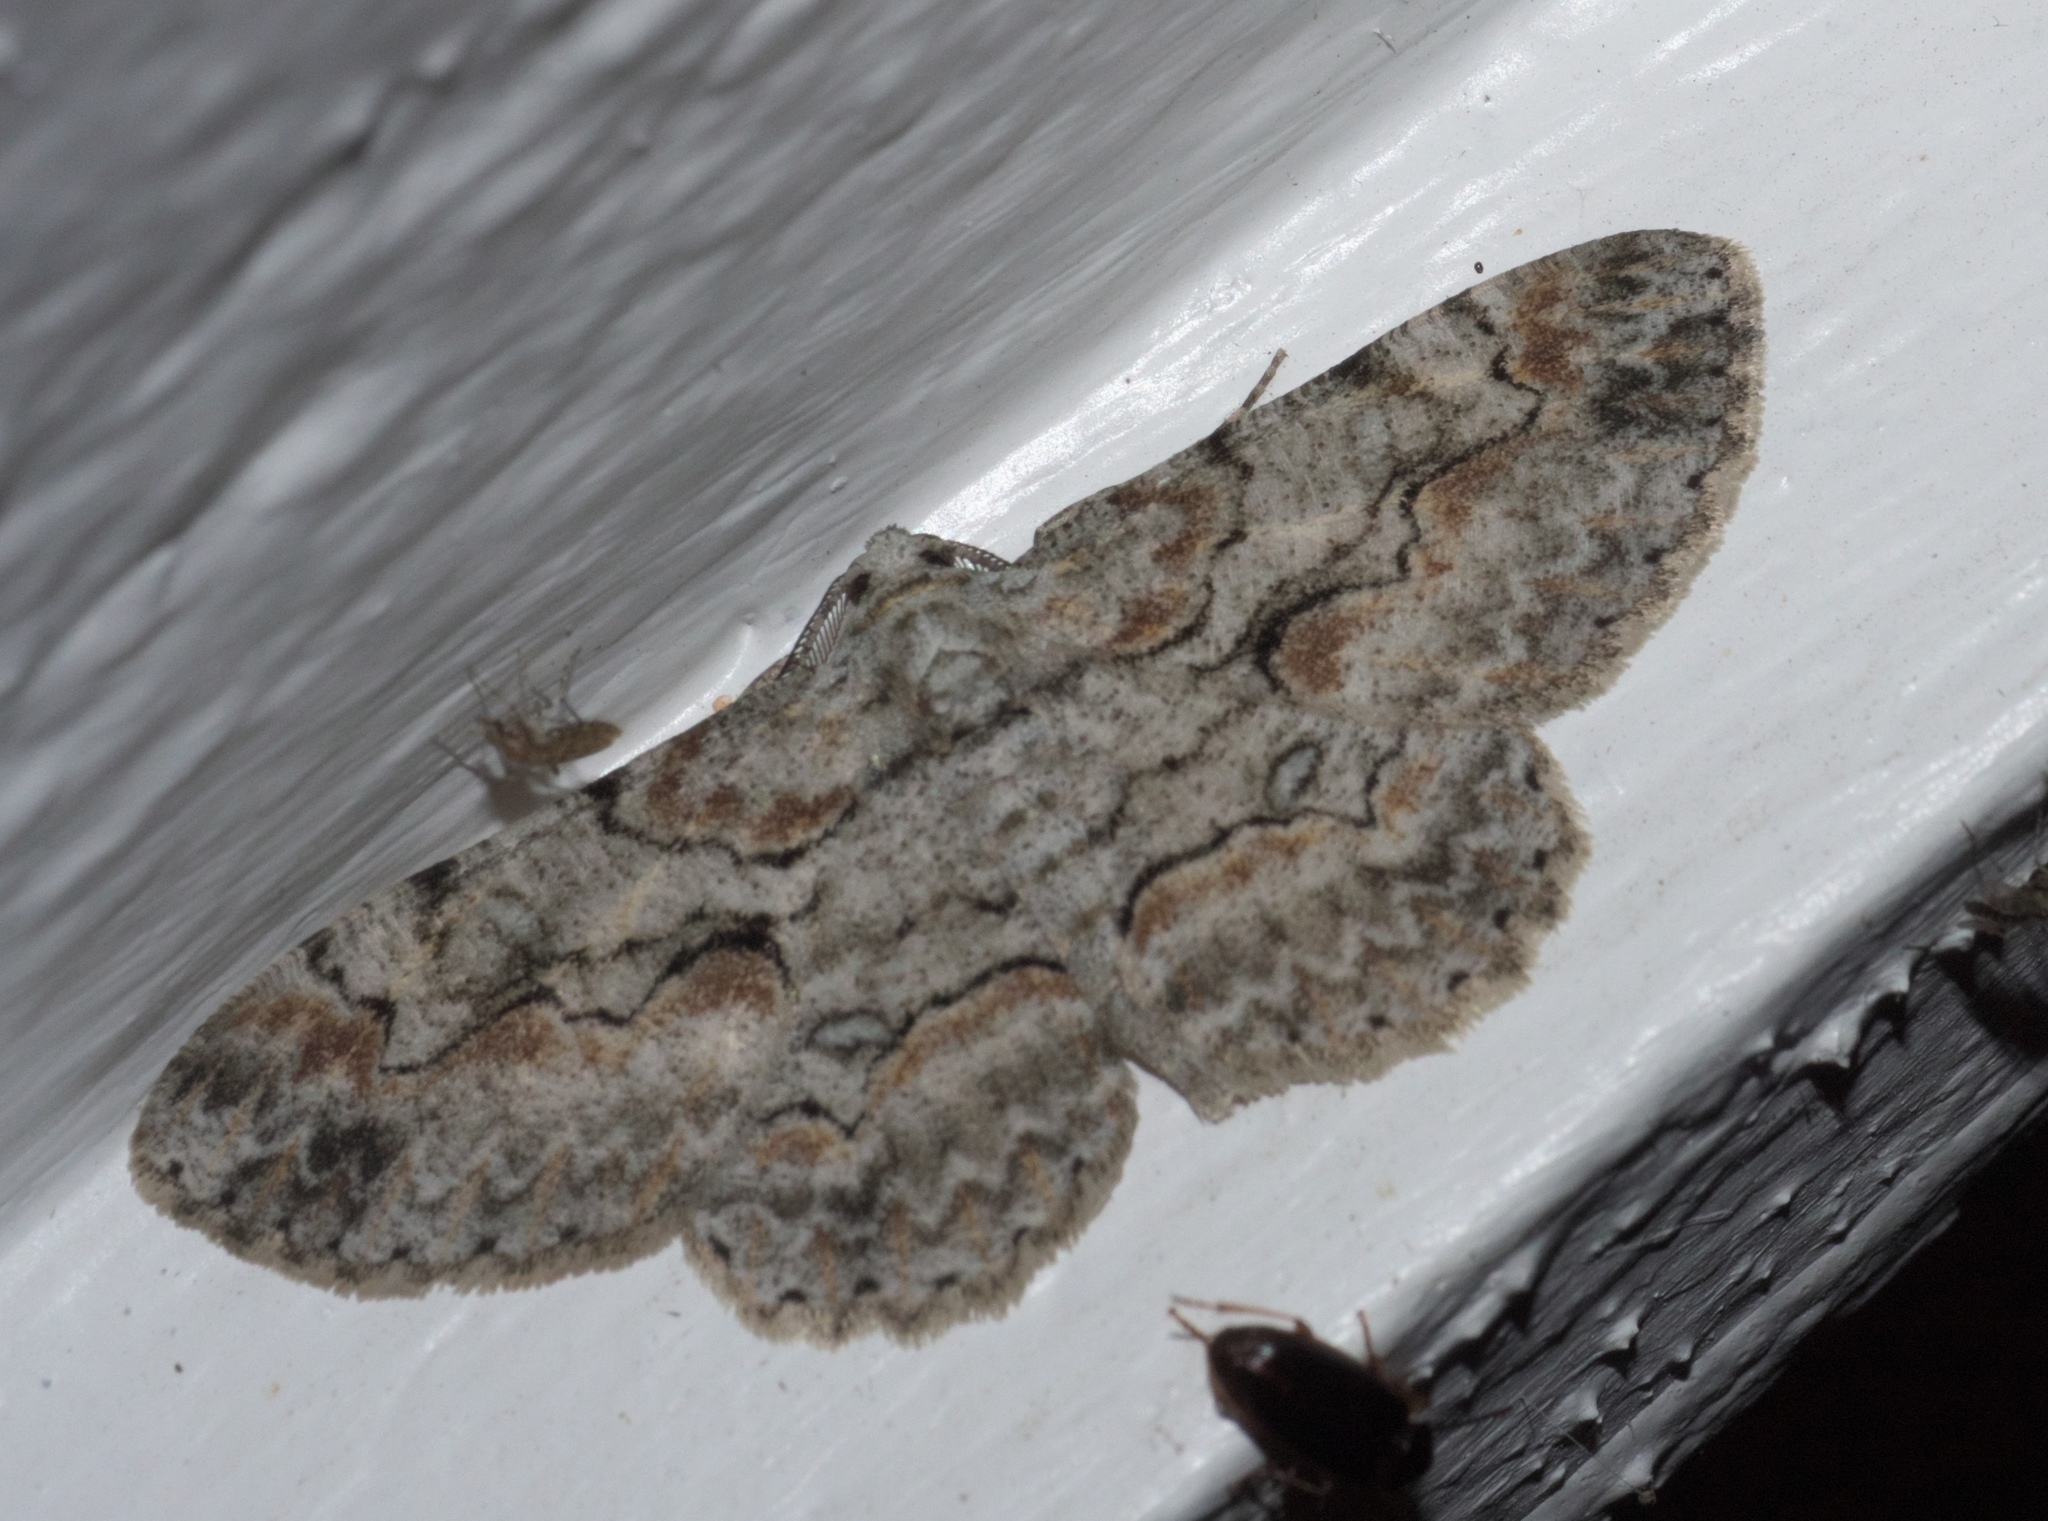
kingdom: Animalia
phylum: Arthropoda
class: Insecta
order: Lepidoptera
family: Geometridae
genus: Iridopsis
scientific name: Iridopsis defectaria
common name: Brown-shaded gray
